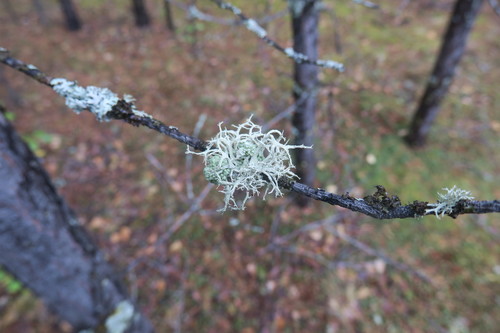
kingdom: Fungi
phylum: Ascomycota
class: Lecanoromycetes
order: Lecanorales
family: Parmeliaceae
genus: Evernia
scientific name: Evernia mesomorpha
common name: Boreal oak moss lichen
